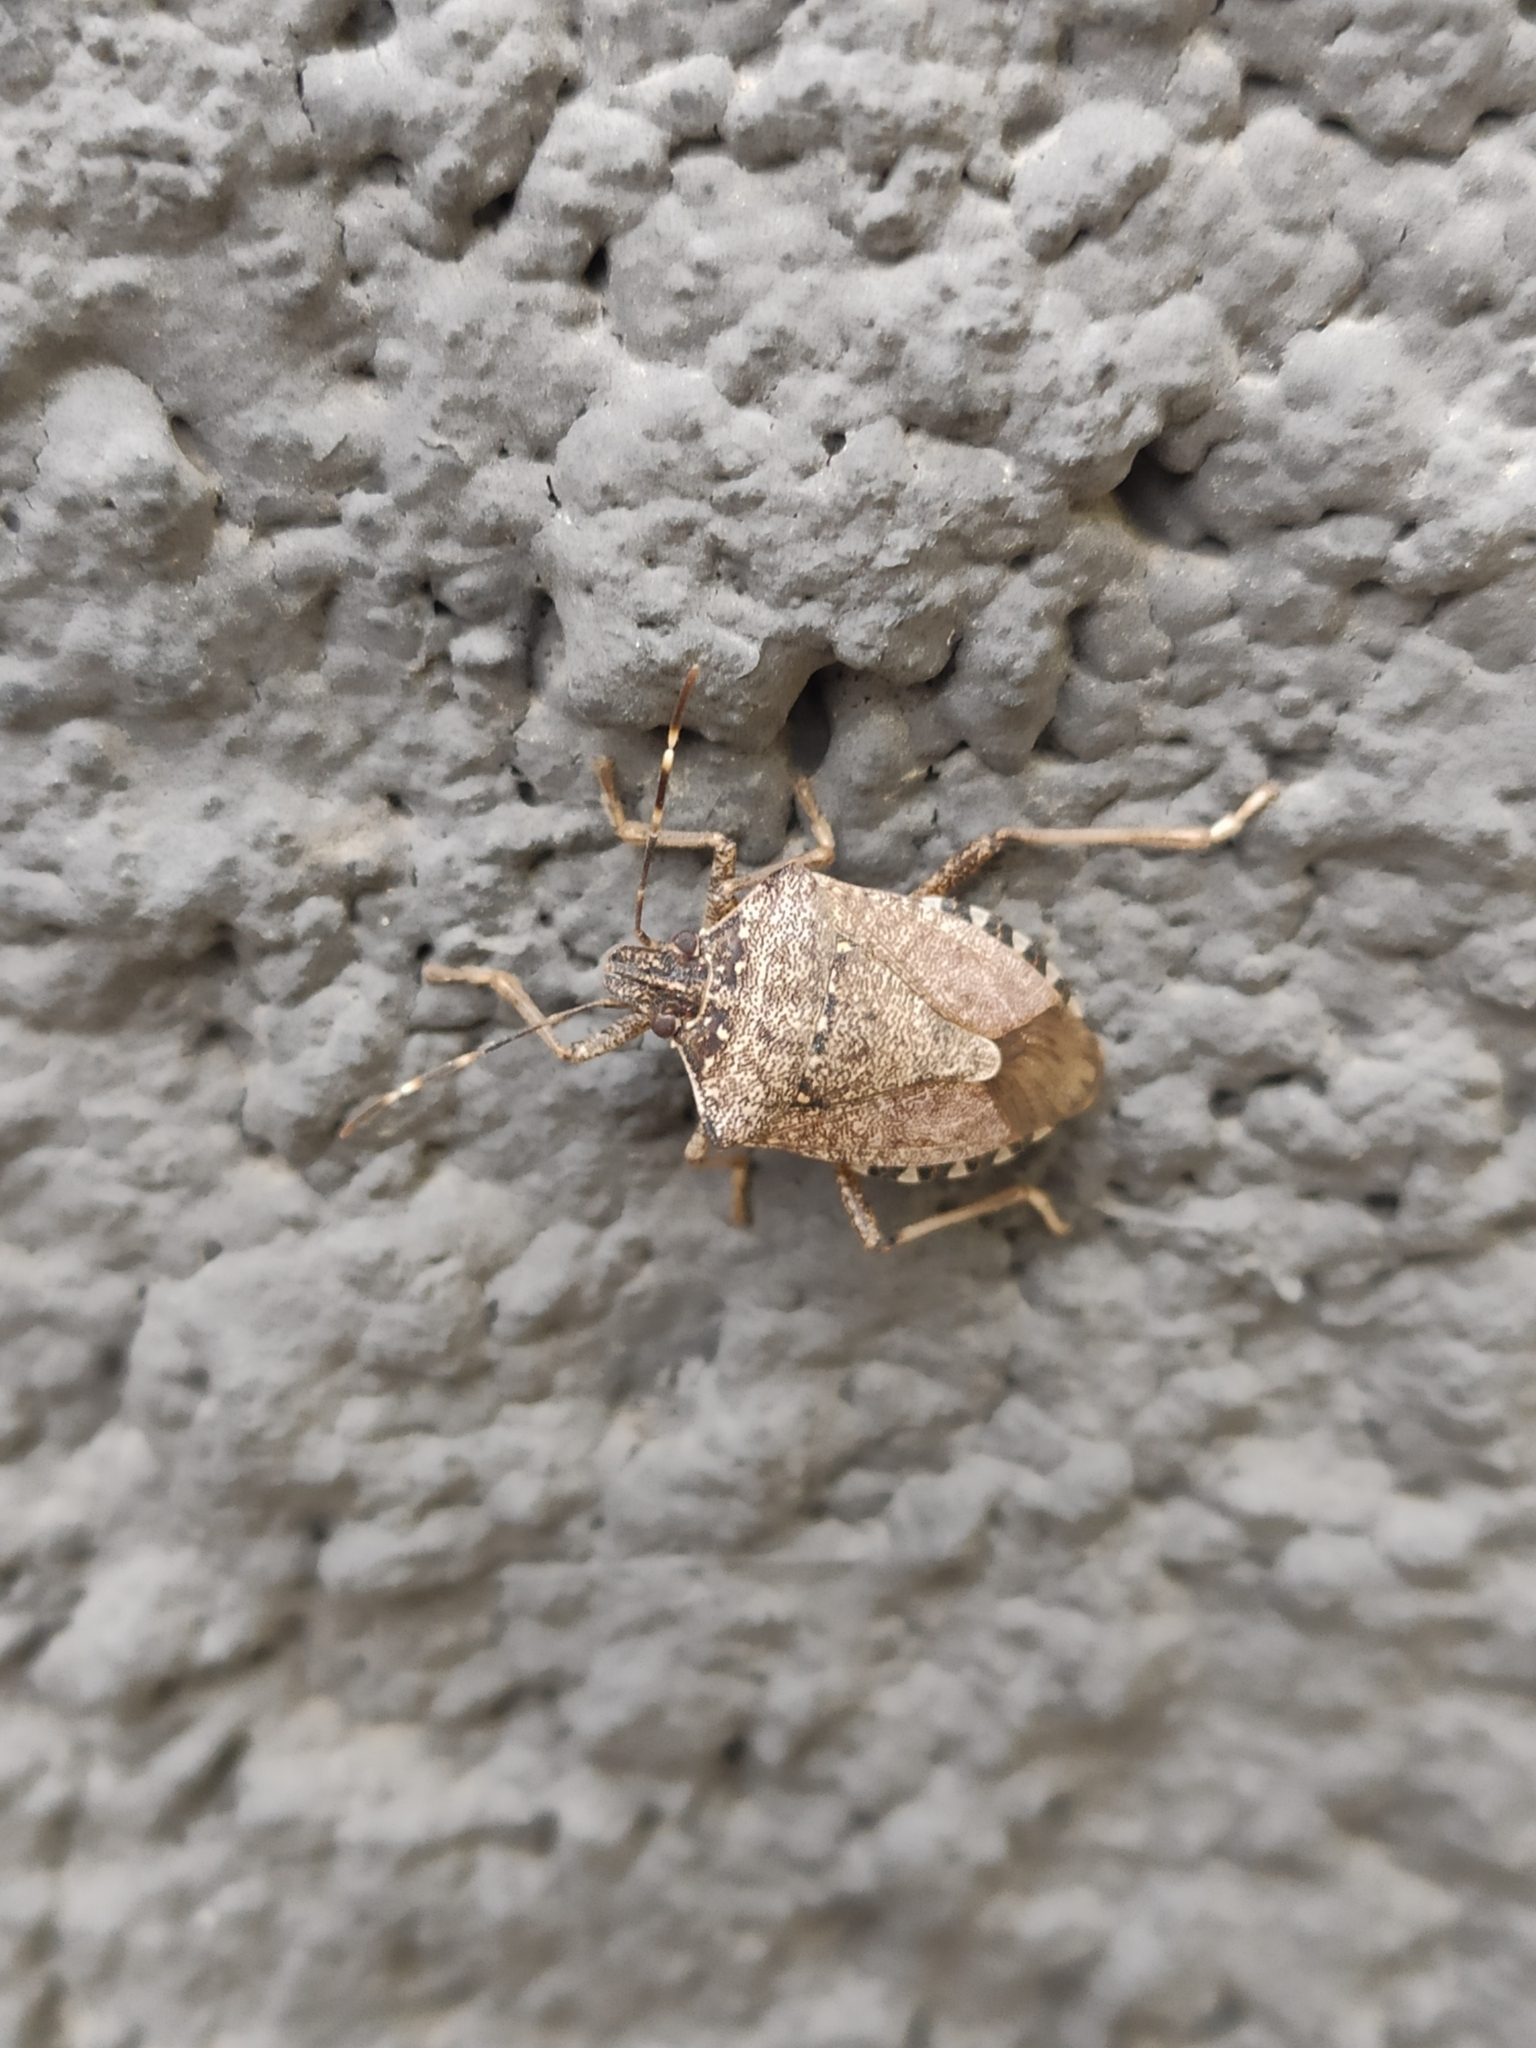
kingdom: Animalia
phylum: Arthropoda
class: Insecta
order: Hemiptera
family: Pentatomidae
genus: Halyomorpha
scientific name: Halyomorpha halys
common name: Brown marmorated stink bug
